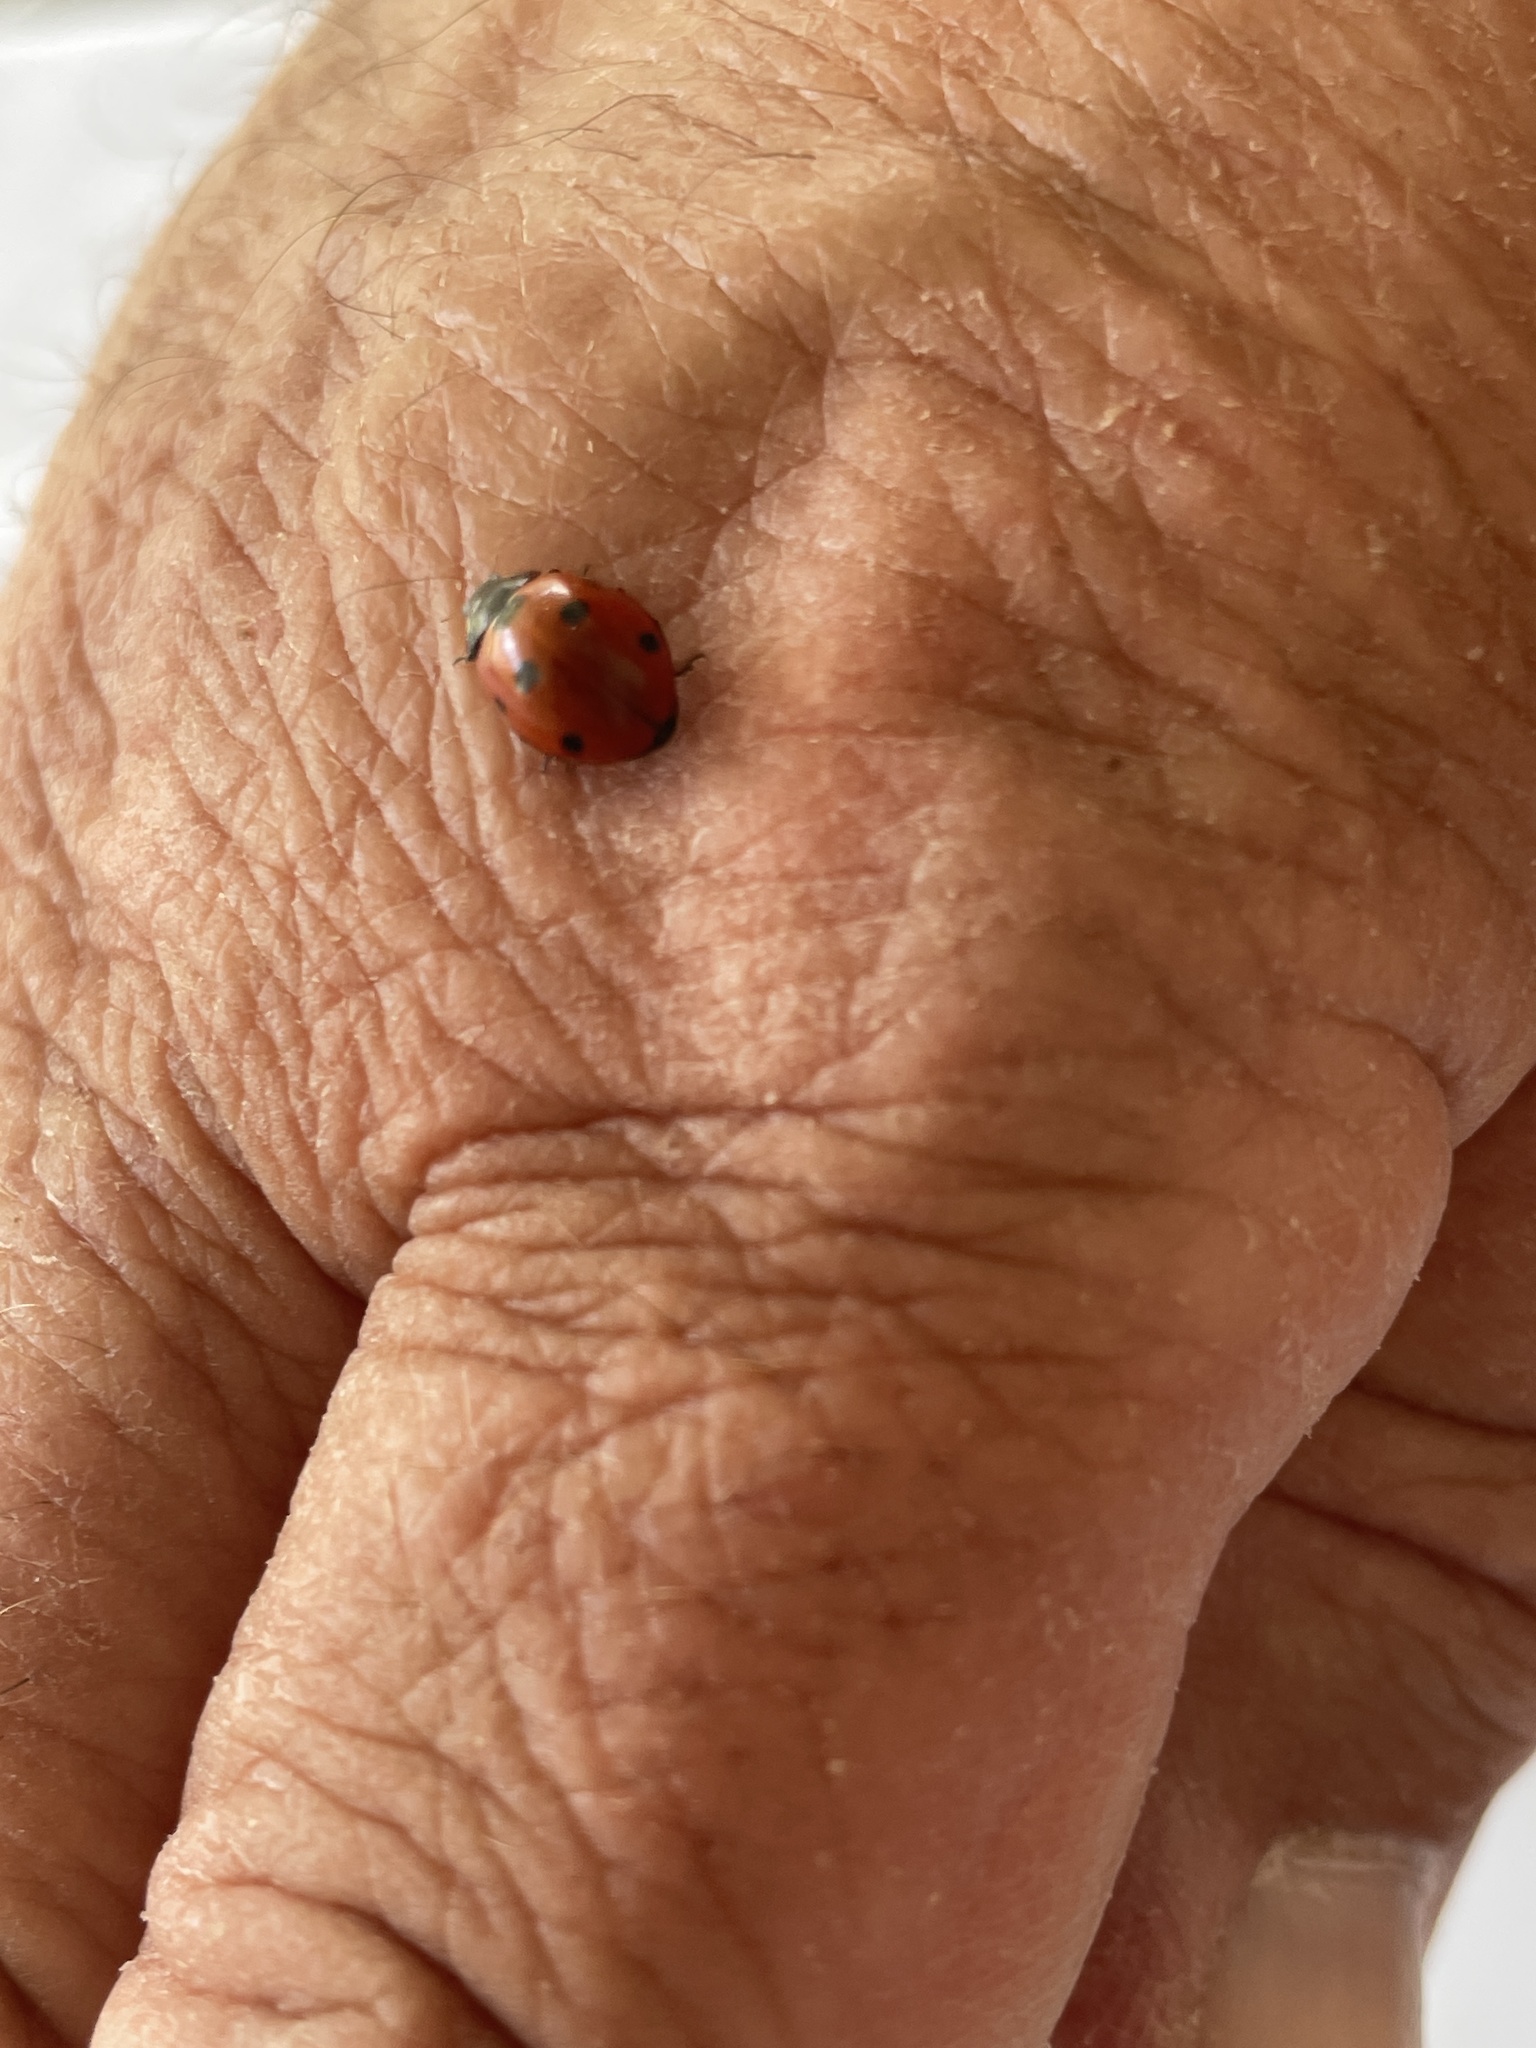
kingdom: Animalia
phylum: Arthropoda
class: Insecta
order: Coleoptera
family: Coccinellidae
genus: Coccinella
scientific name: Coccinella septempunctata
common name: Sevenspotted lady beetle
